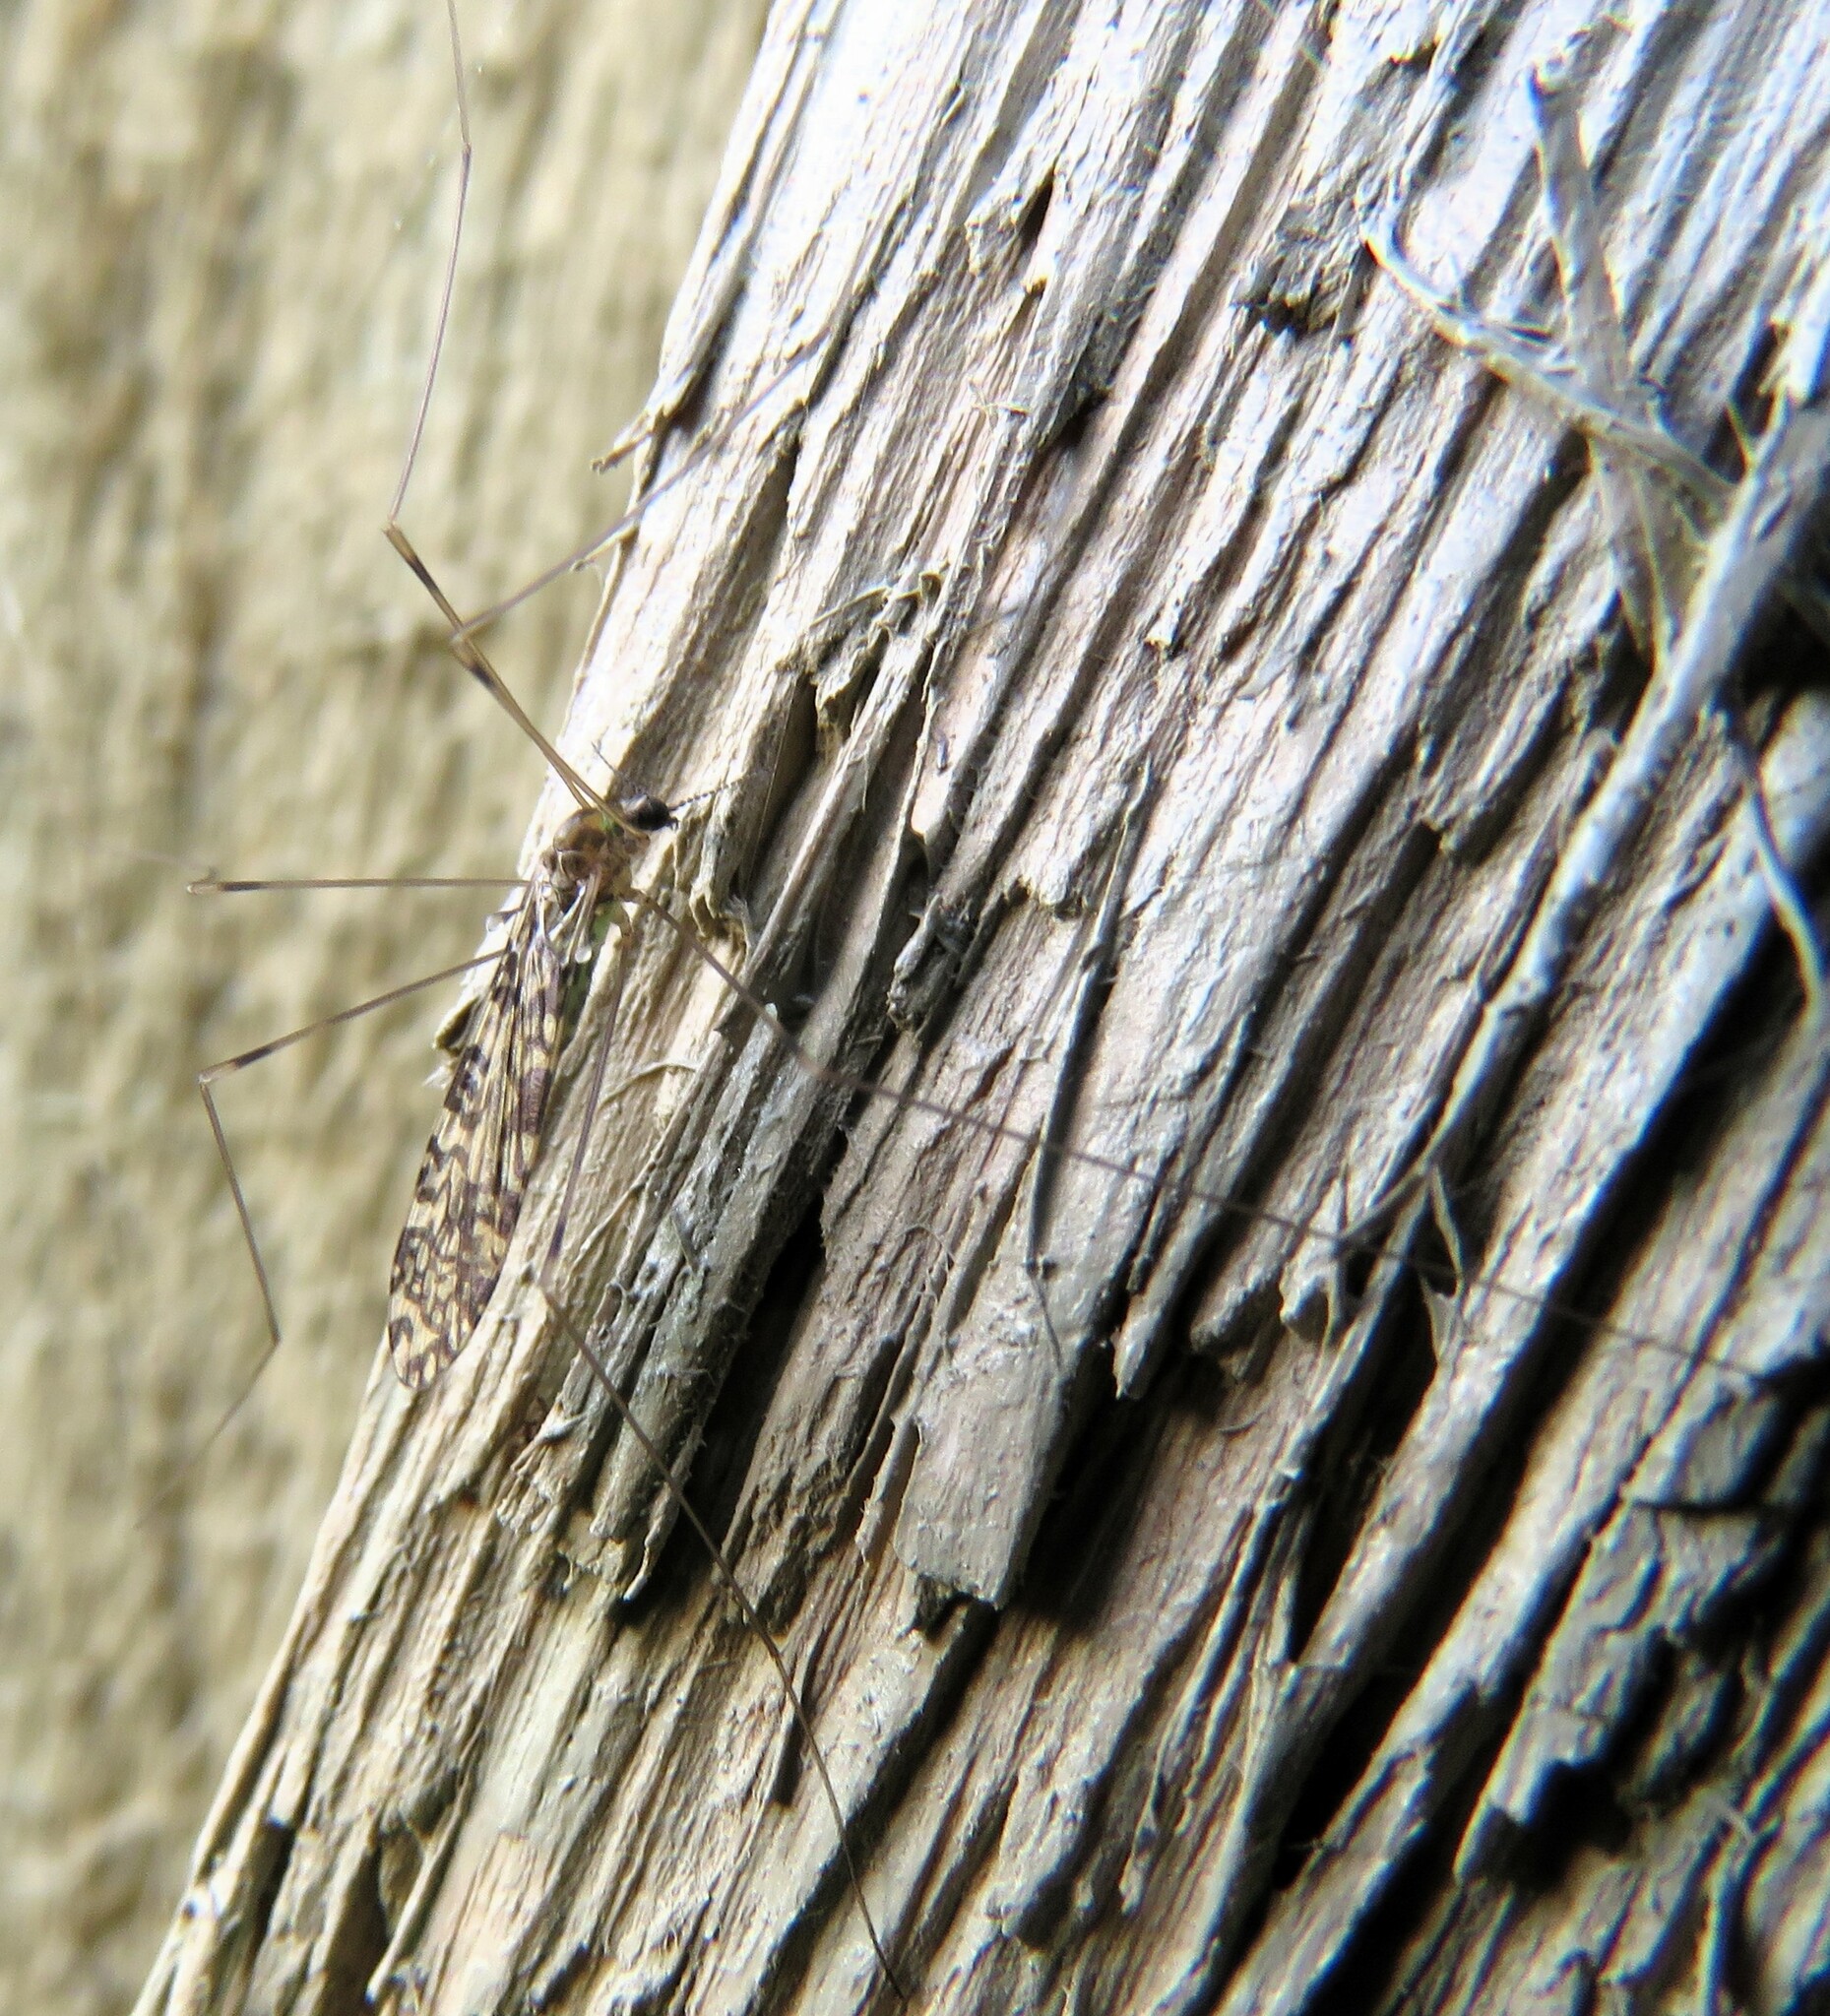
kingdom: Animalia
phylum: Arthropoda
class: Insecta
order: Diptera
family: Limoniidae
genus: Limonia
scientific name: Limonia annulata
